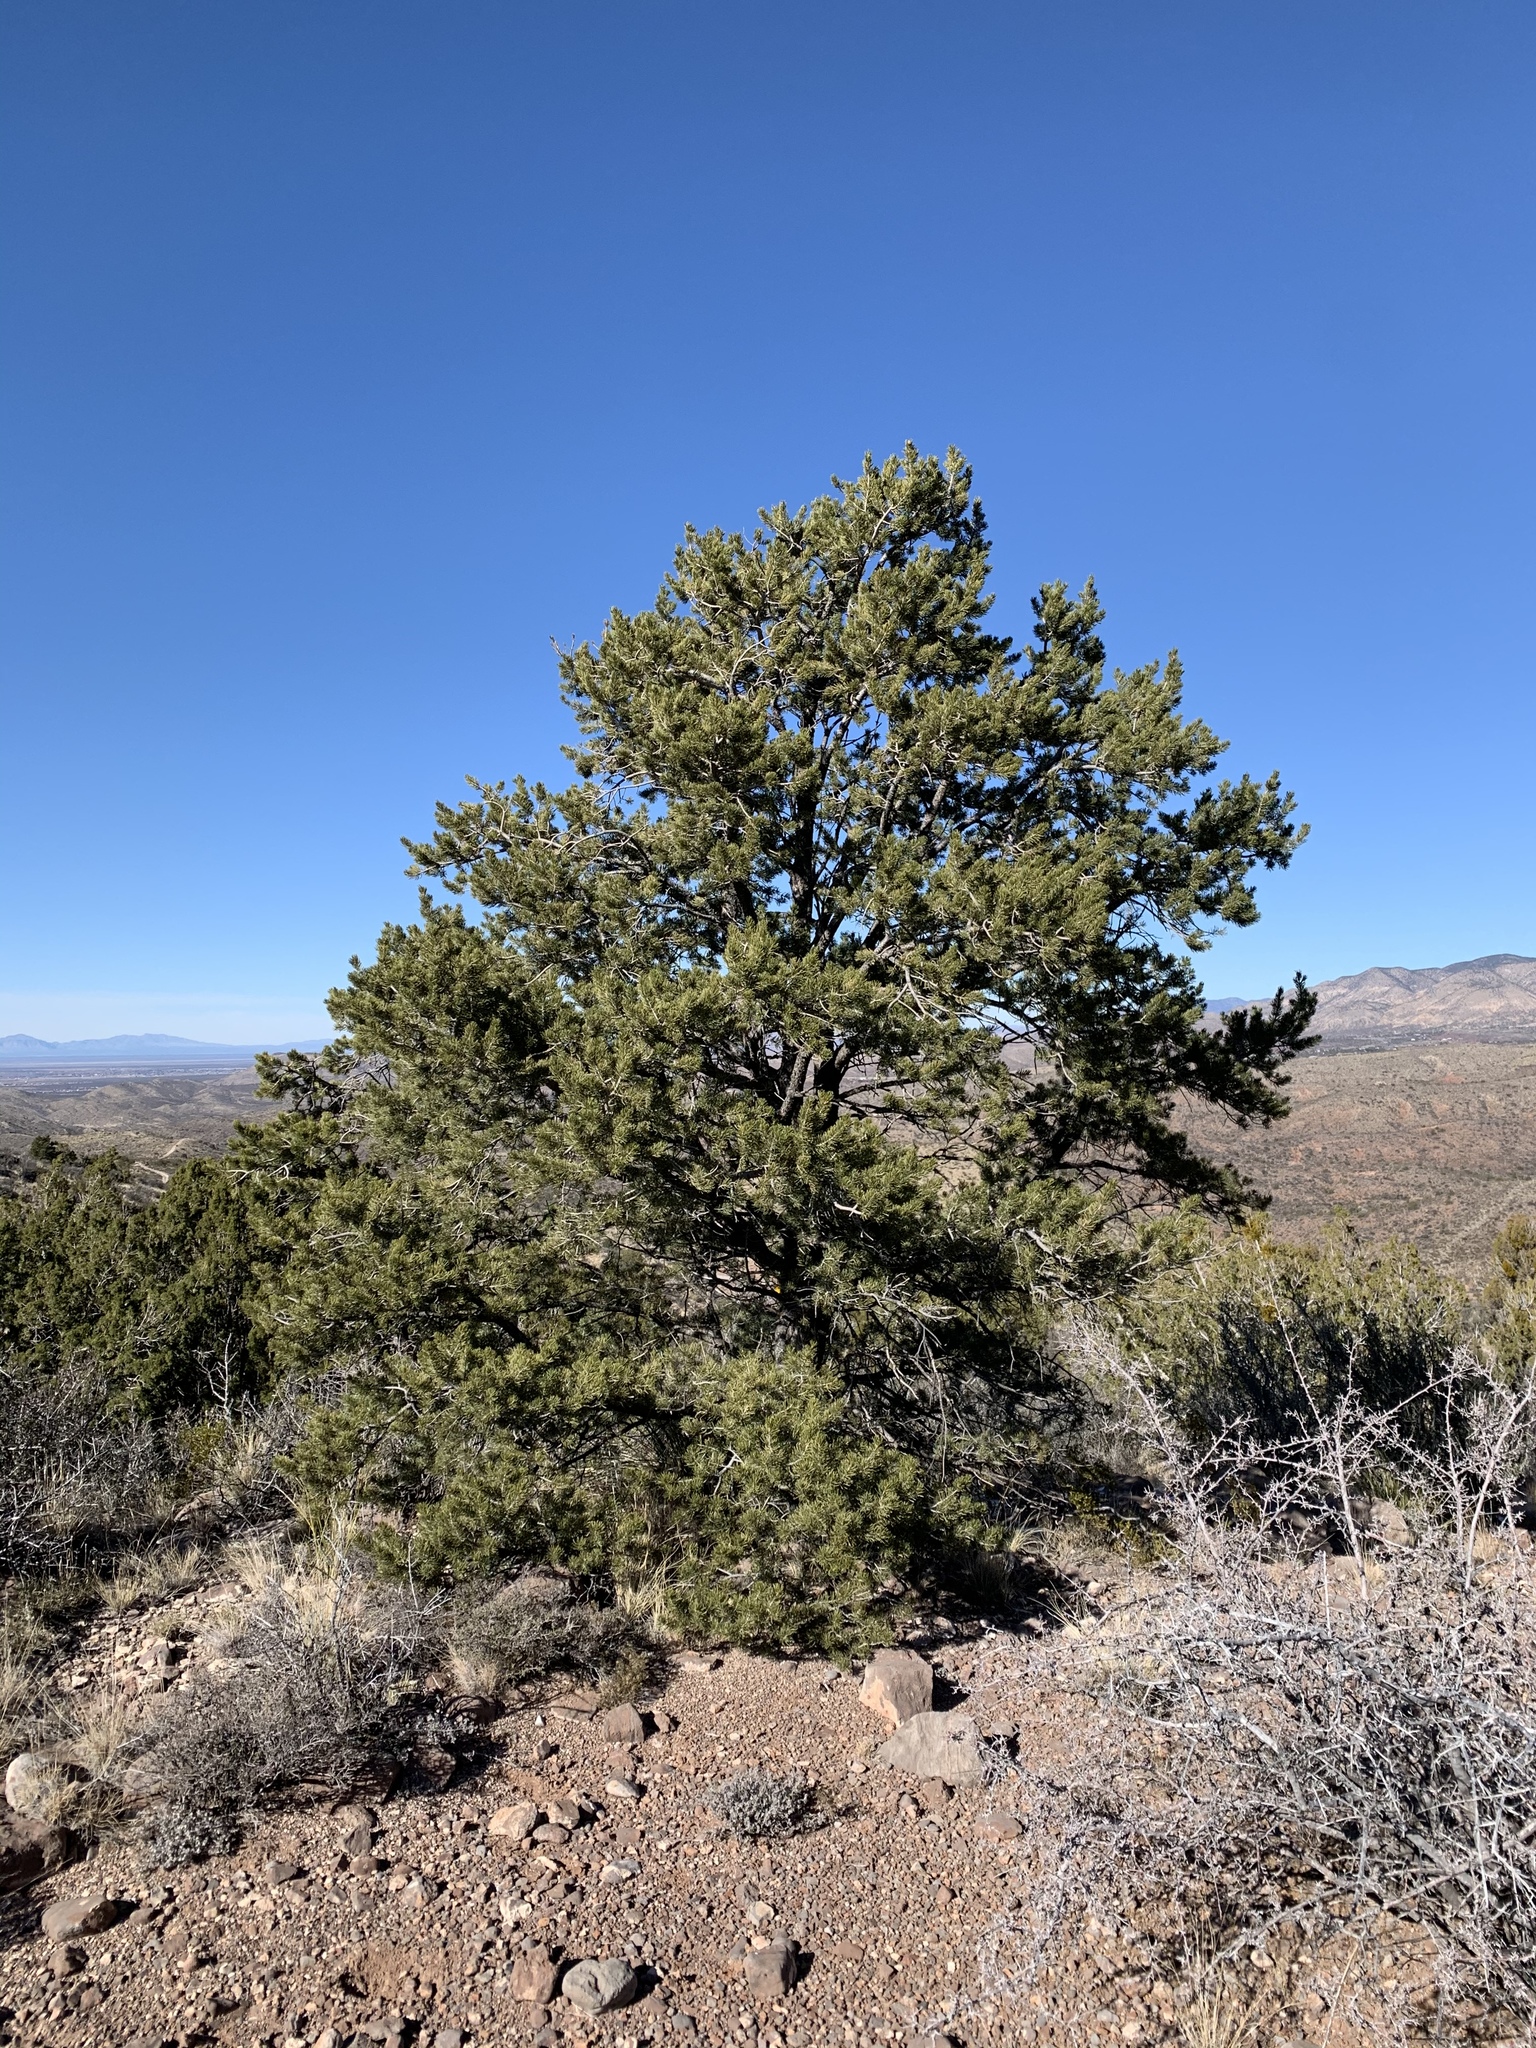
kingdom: Plantae
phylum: Tracheophyta
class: Pinopsida
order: Pinales
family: Pinaceae
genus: Pinus
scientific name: Pinus edulis
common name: Colorado pinyon
